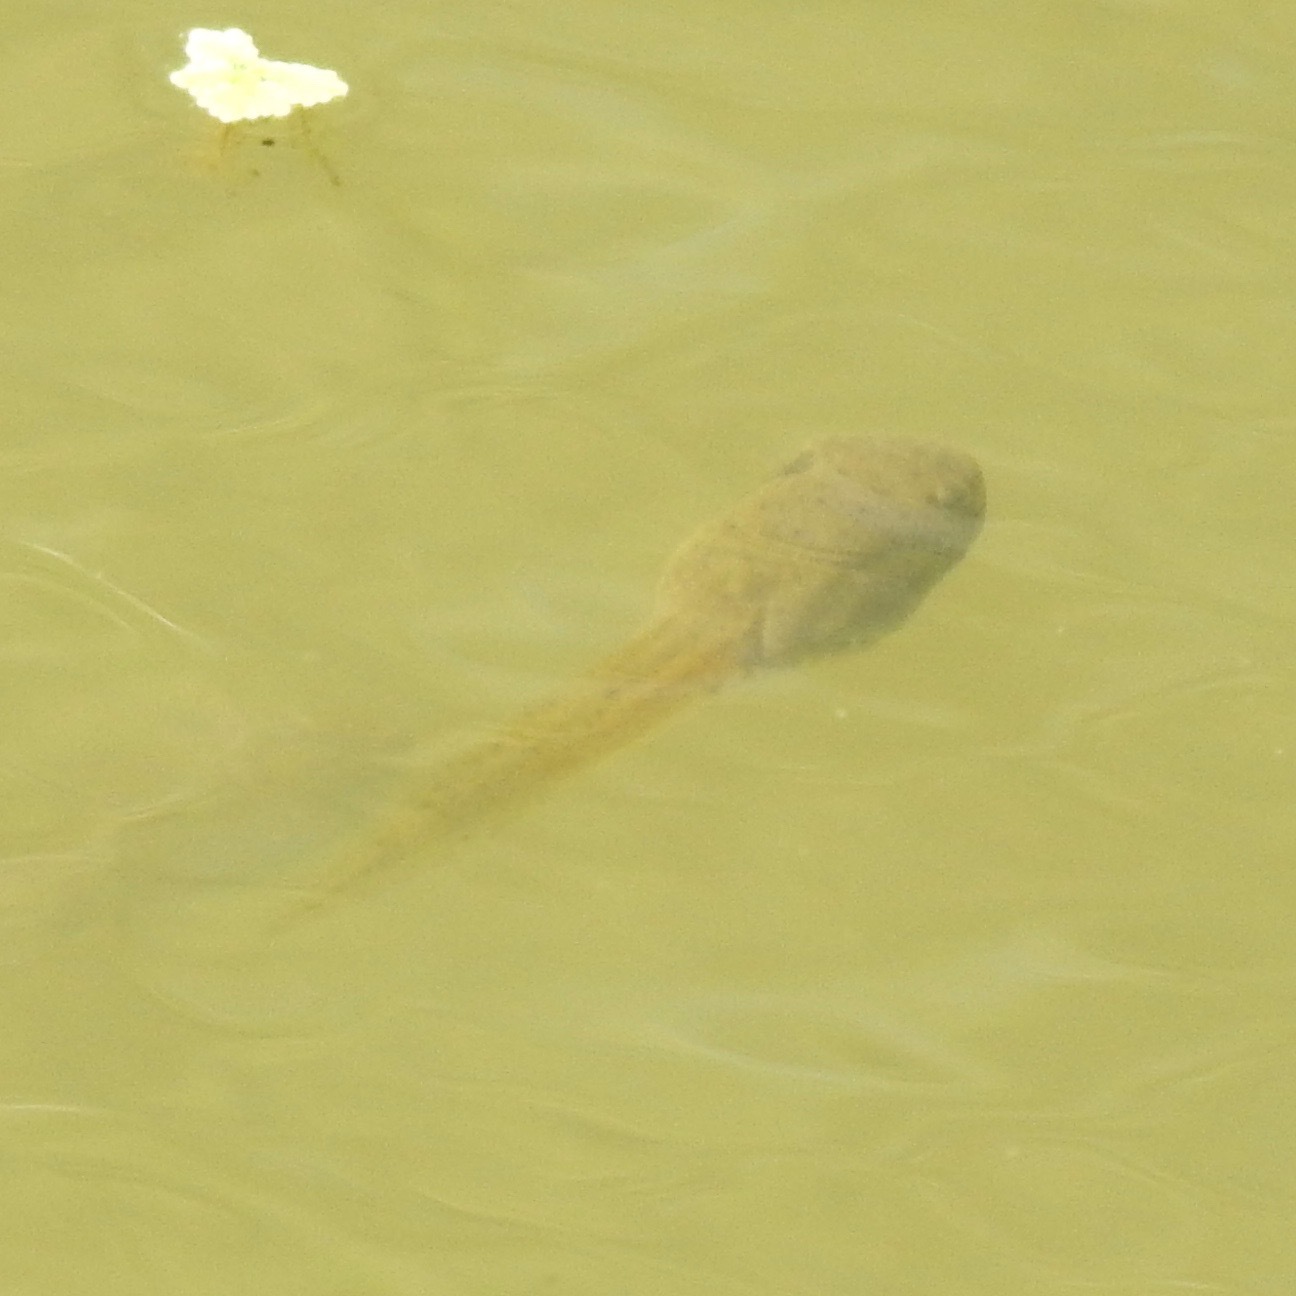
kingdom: Animalia
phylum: Chordata
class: Amphibia
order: Anura
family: Ranidae
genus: Lithobates
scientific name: Lithobates catesbeianus
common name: American bullfrog
